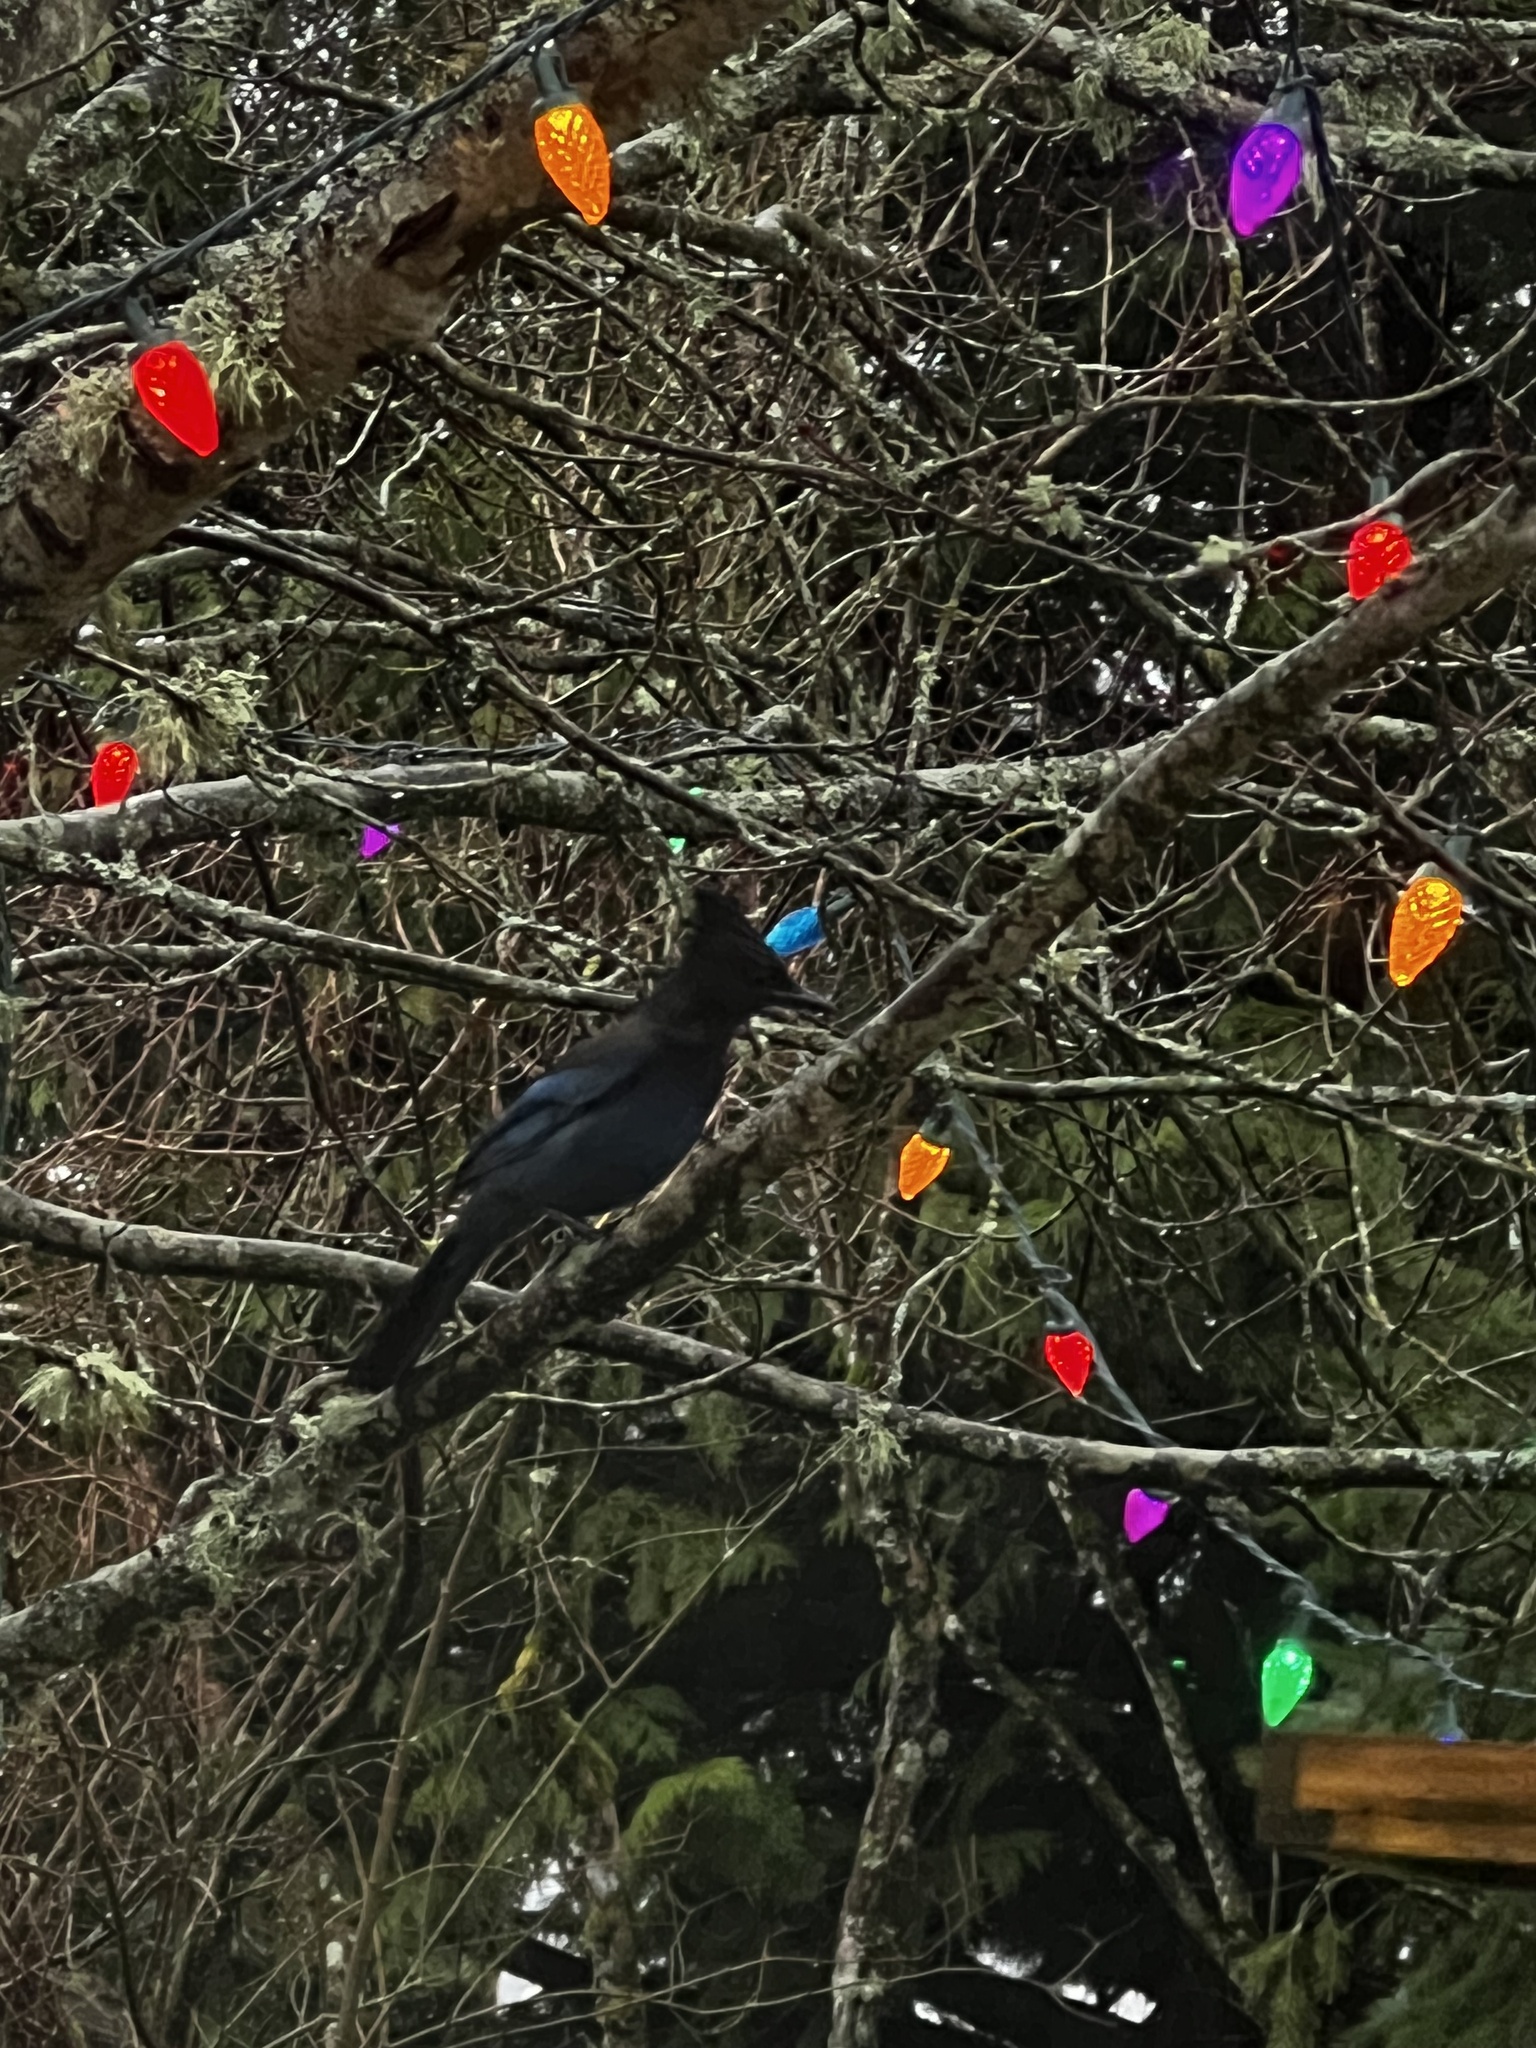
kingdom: Animalia
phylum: Chordata
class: Aves
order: Passeriformes
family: Corvidae
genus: Cyanocitta
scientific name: Cyanocitta stelleri
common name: Steller's jay
